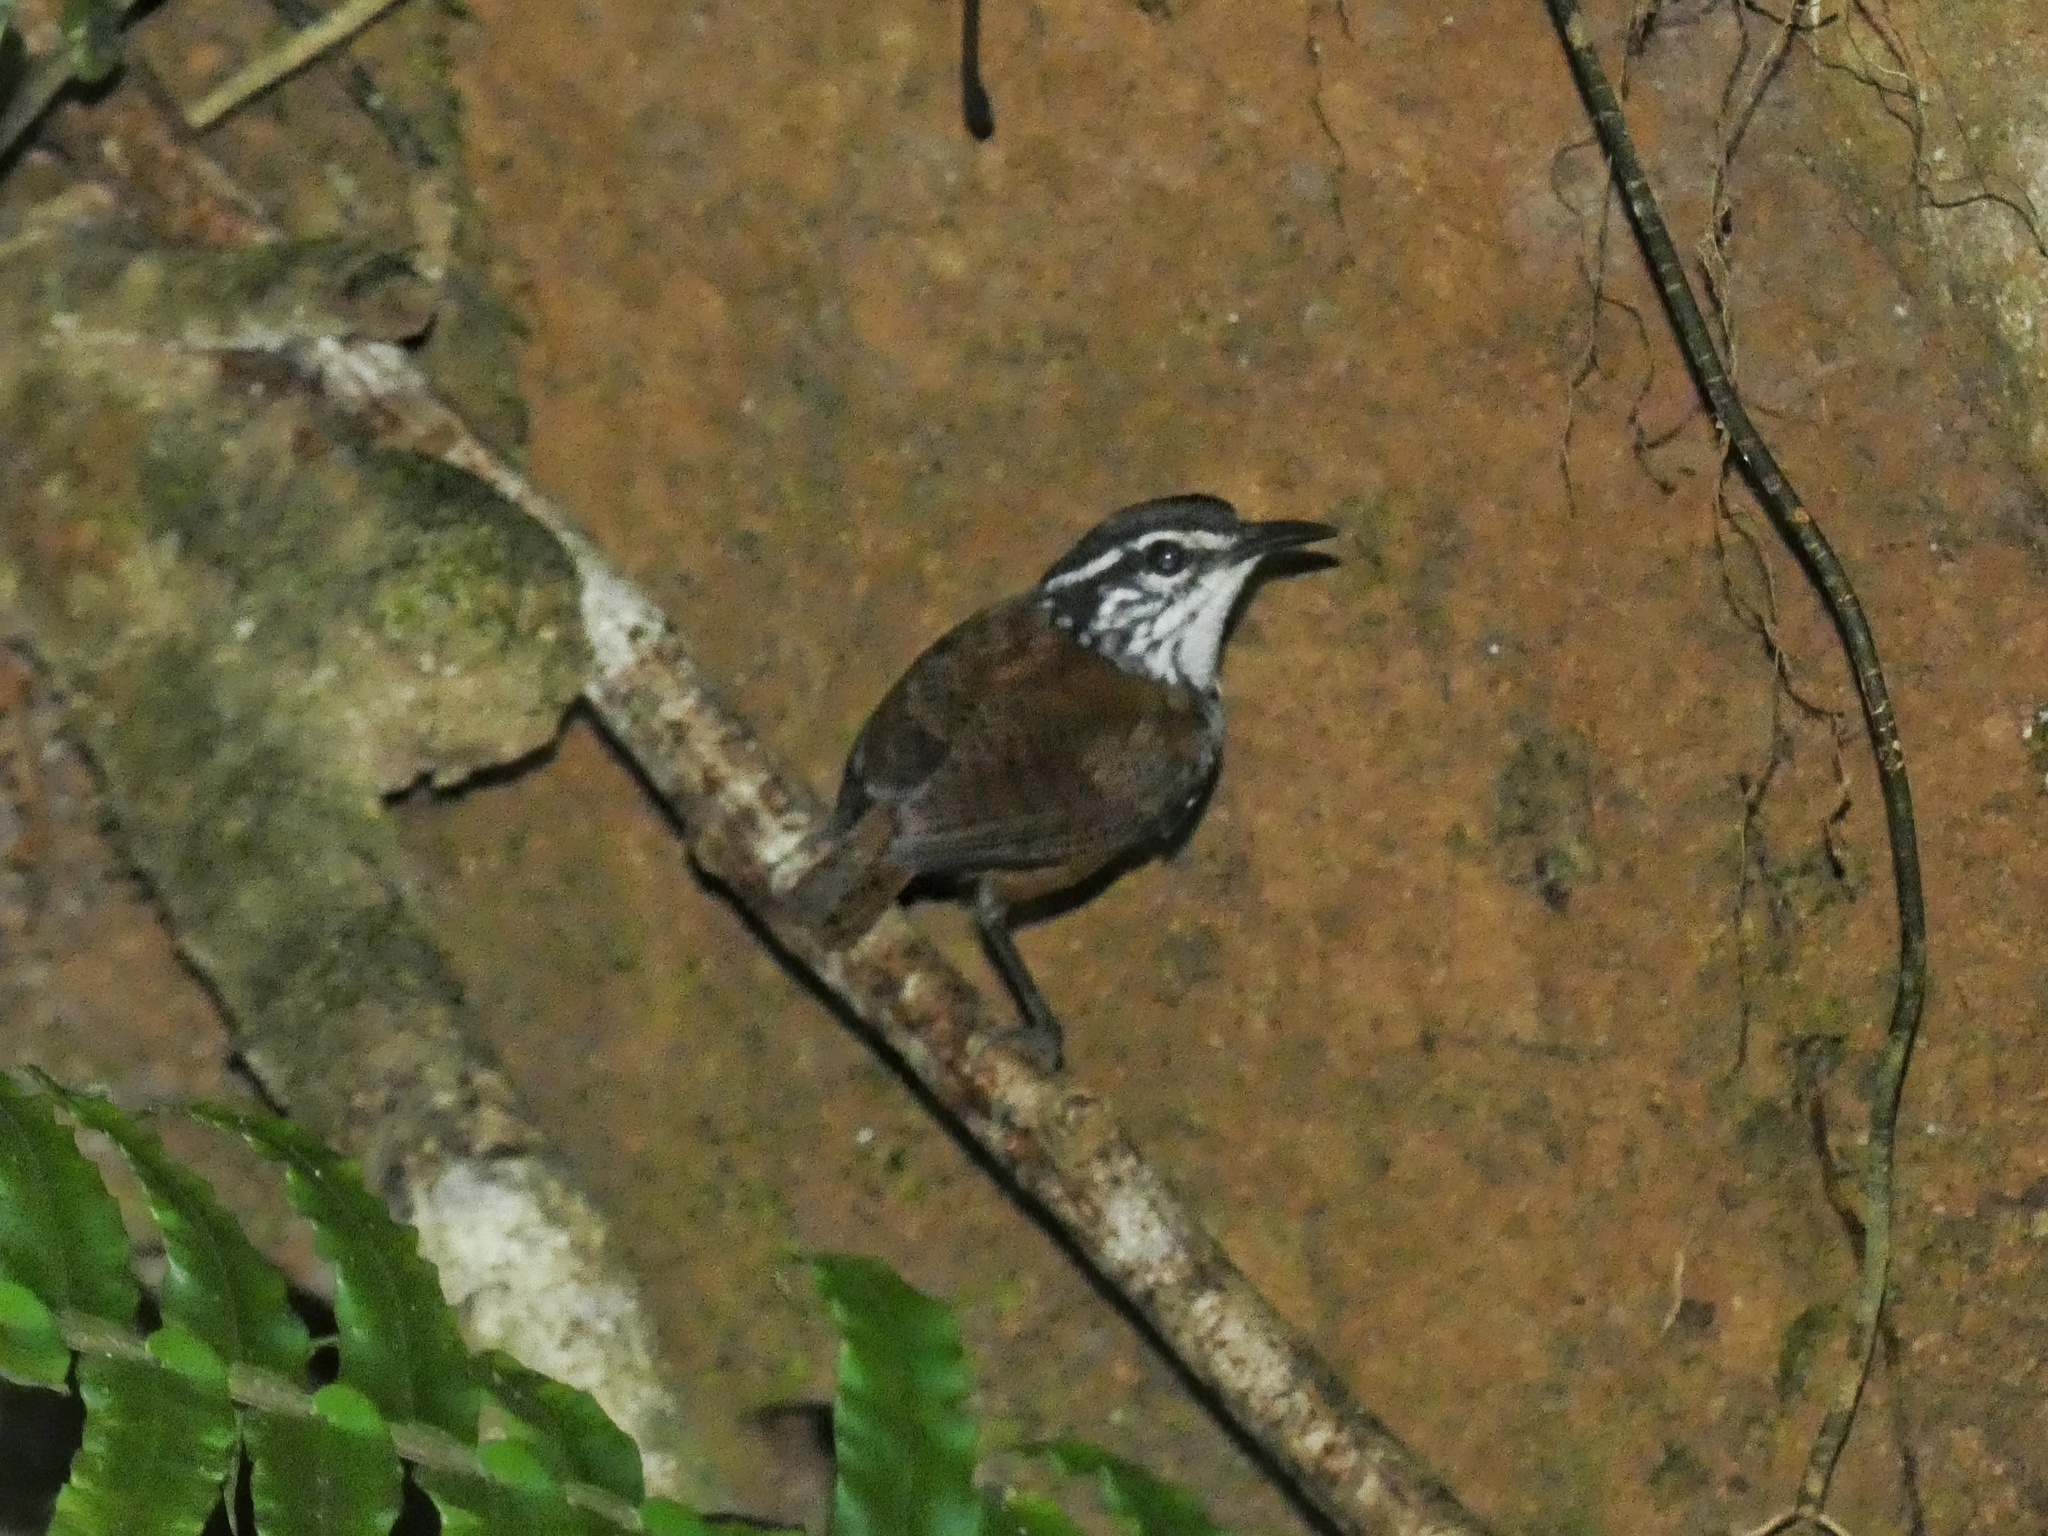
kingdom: Animalia
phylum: Chordata
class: Aves
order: Passeriformes
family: Troglodytidae
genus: Henicorhina
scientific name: Henicorhina leucosticta
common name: White-breasted wood-wren
